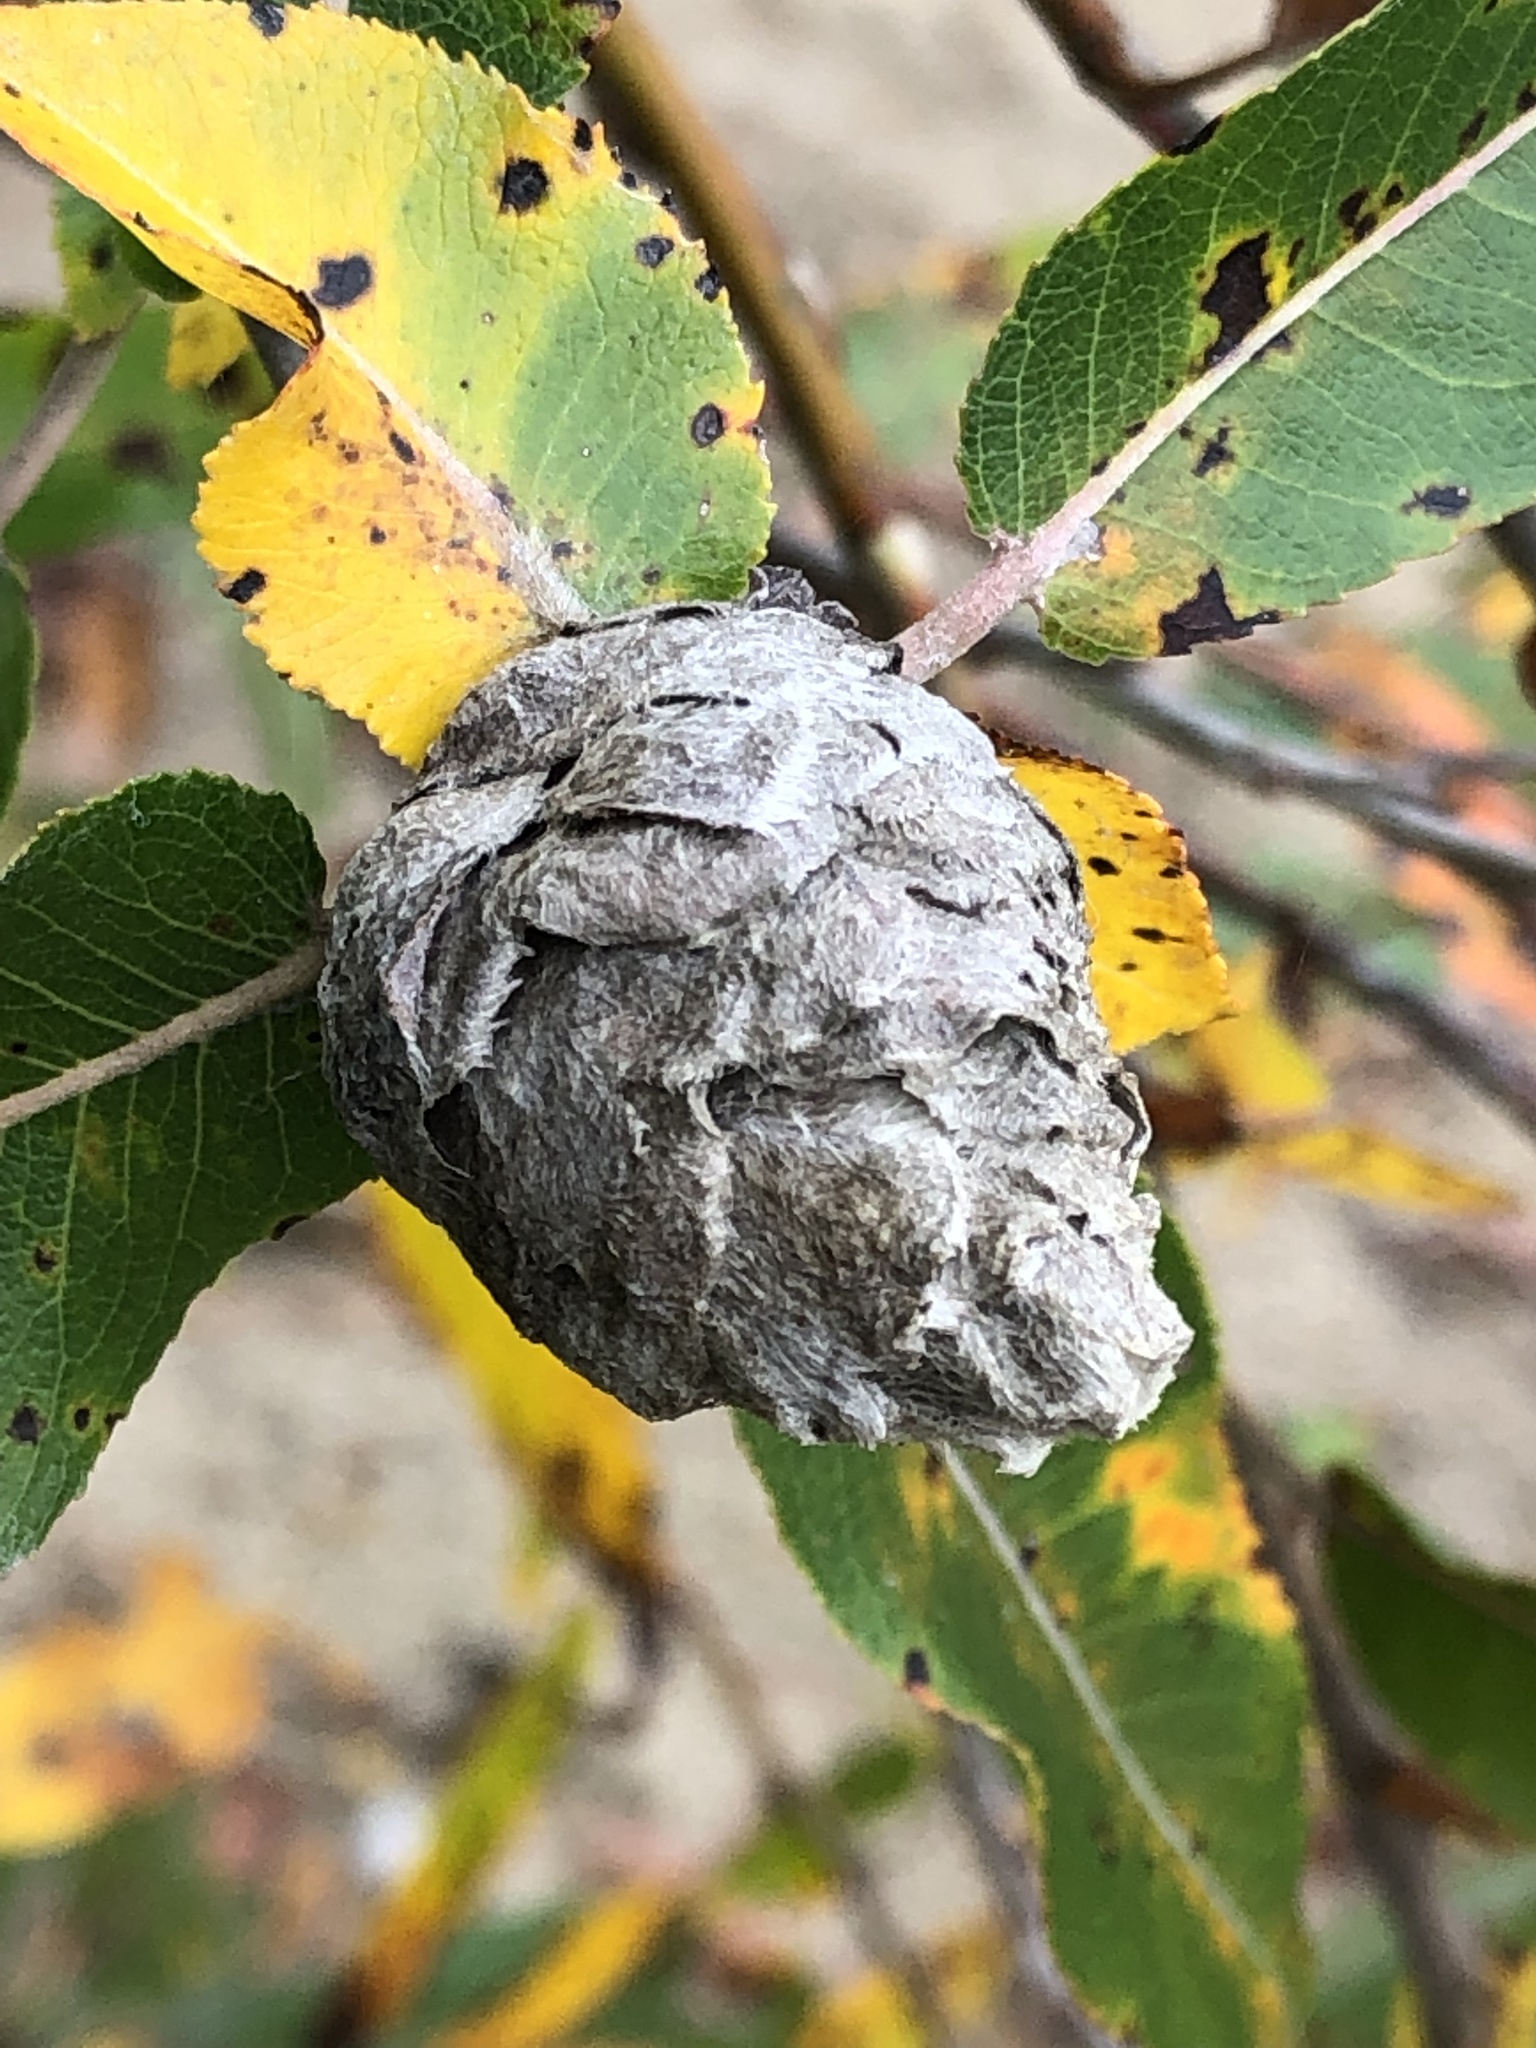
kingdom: Animalia
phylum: Arthropoda
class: Insecta
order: Diptera
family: Cecidomyiidae
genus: Rabdophaga
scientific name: Rabdophaga strobiloides
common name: Willow pinecone gall midge
